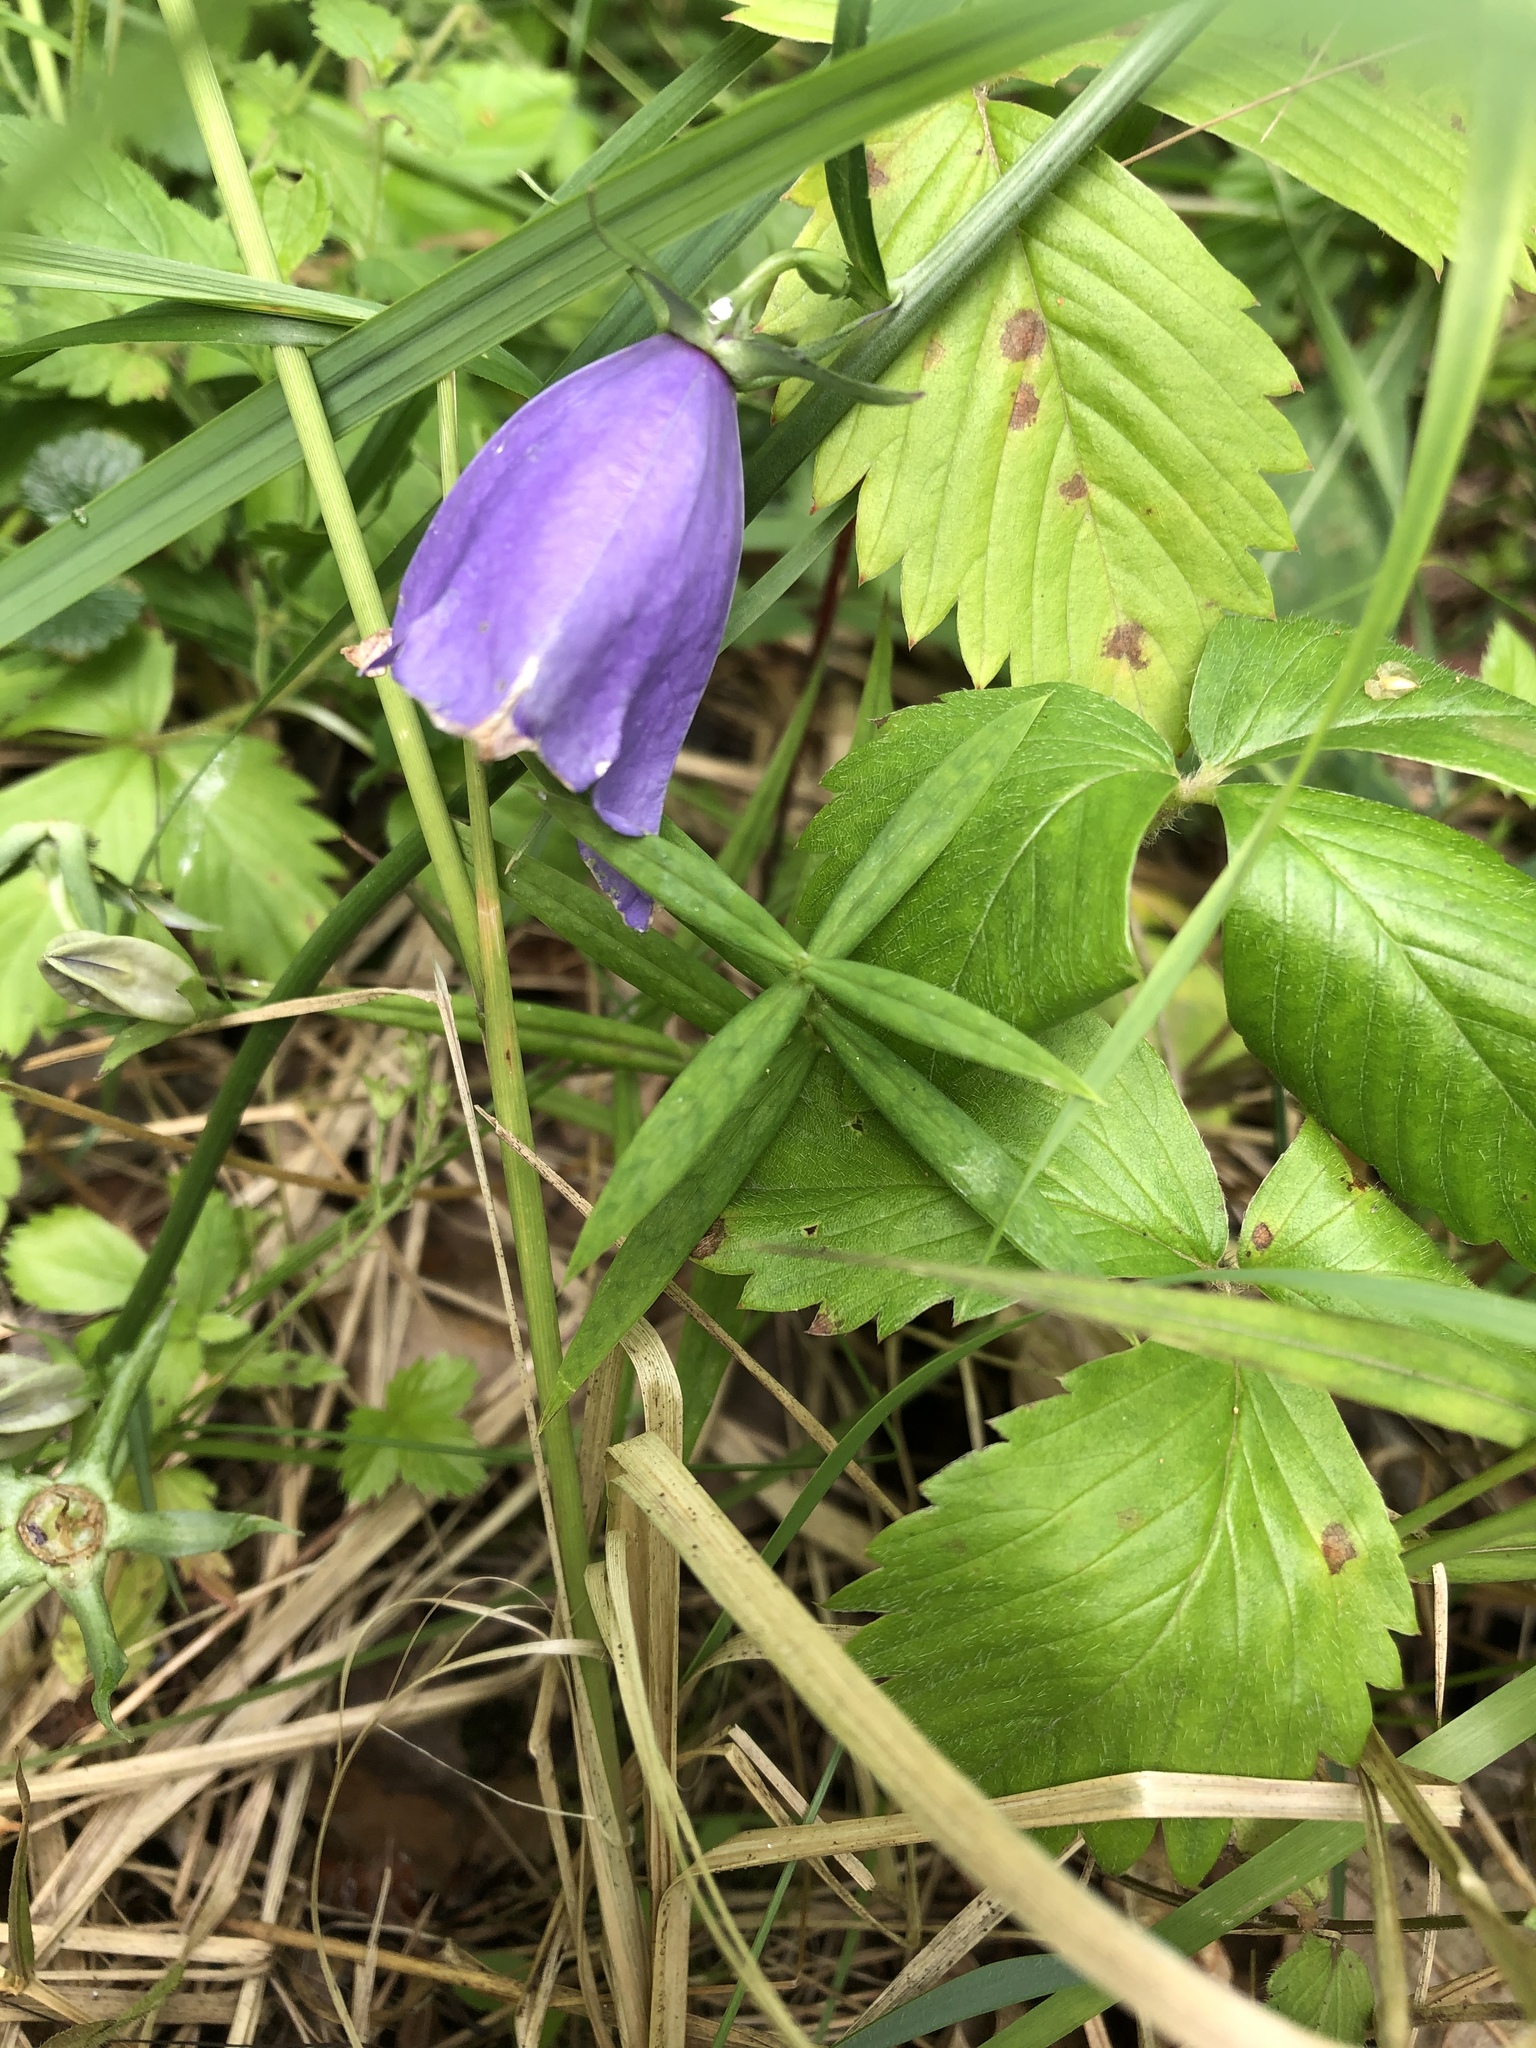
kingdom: Plantae
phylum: Tracheophyta
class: Magnoliopsida
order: Asterales
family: Campanulaceae
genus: Campanula
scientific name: Campanula persicifolia
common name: Peach-leaved bellflower
